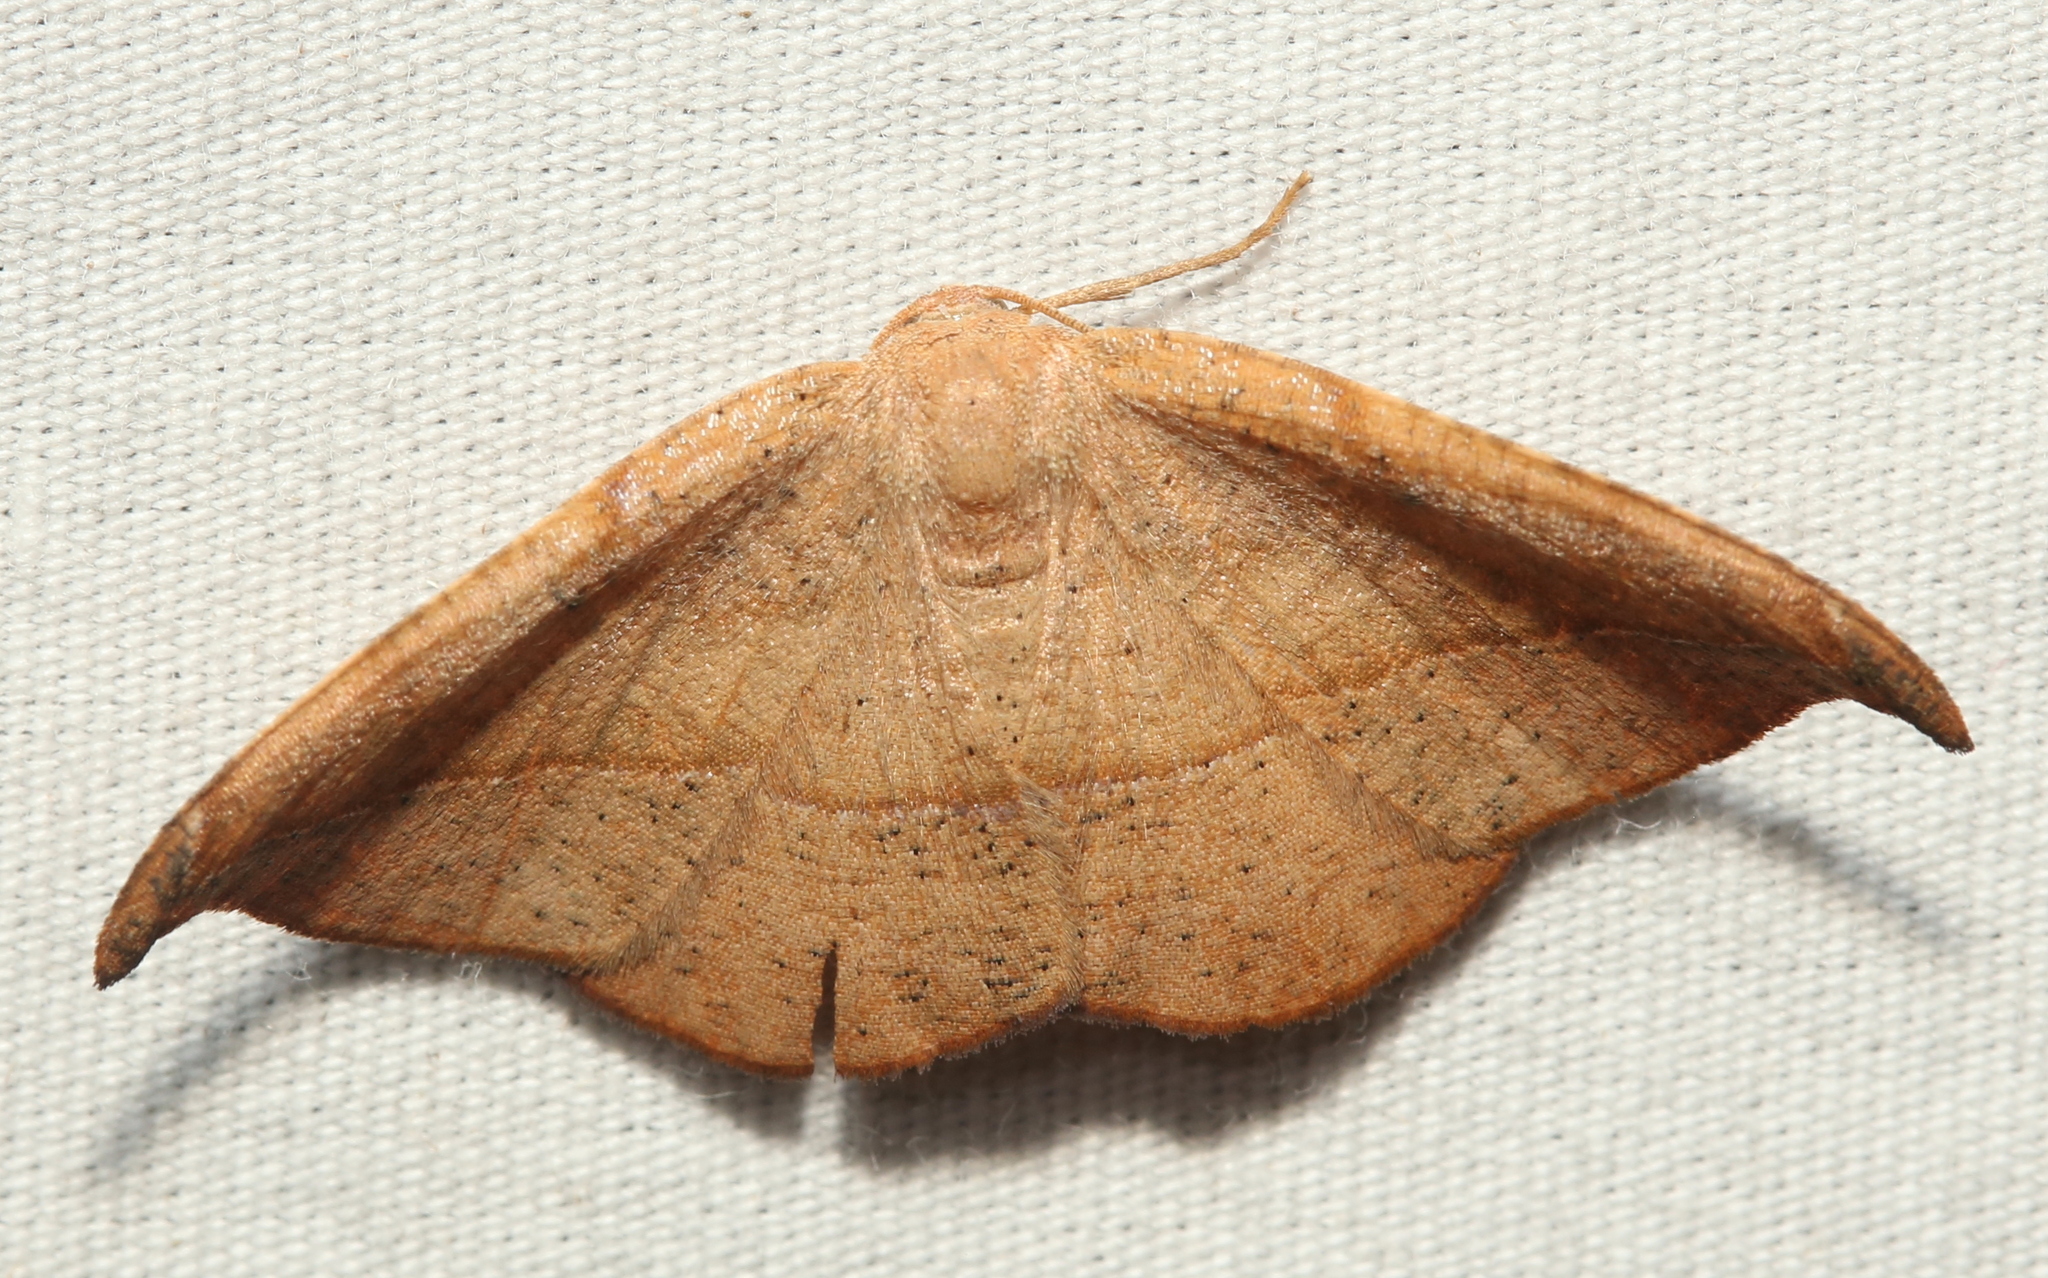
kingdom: Animalia
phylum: Arthropoda
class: Insecta
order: Lepidoptera
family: Geometridae
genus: Patalene
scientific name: Patalene olyzonaria
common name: Juniper geometer moth
